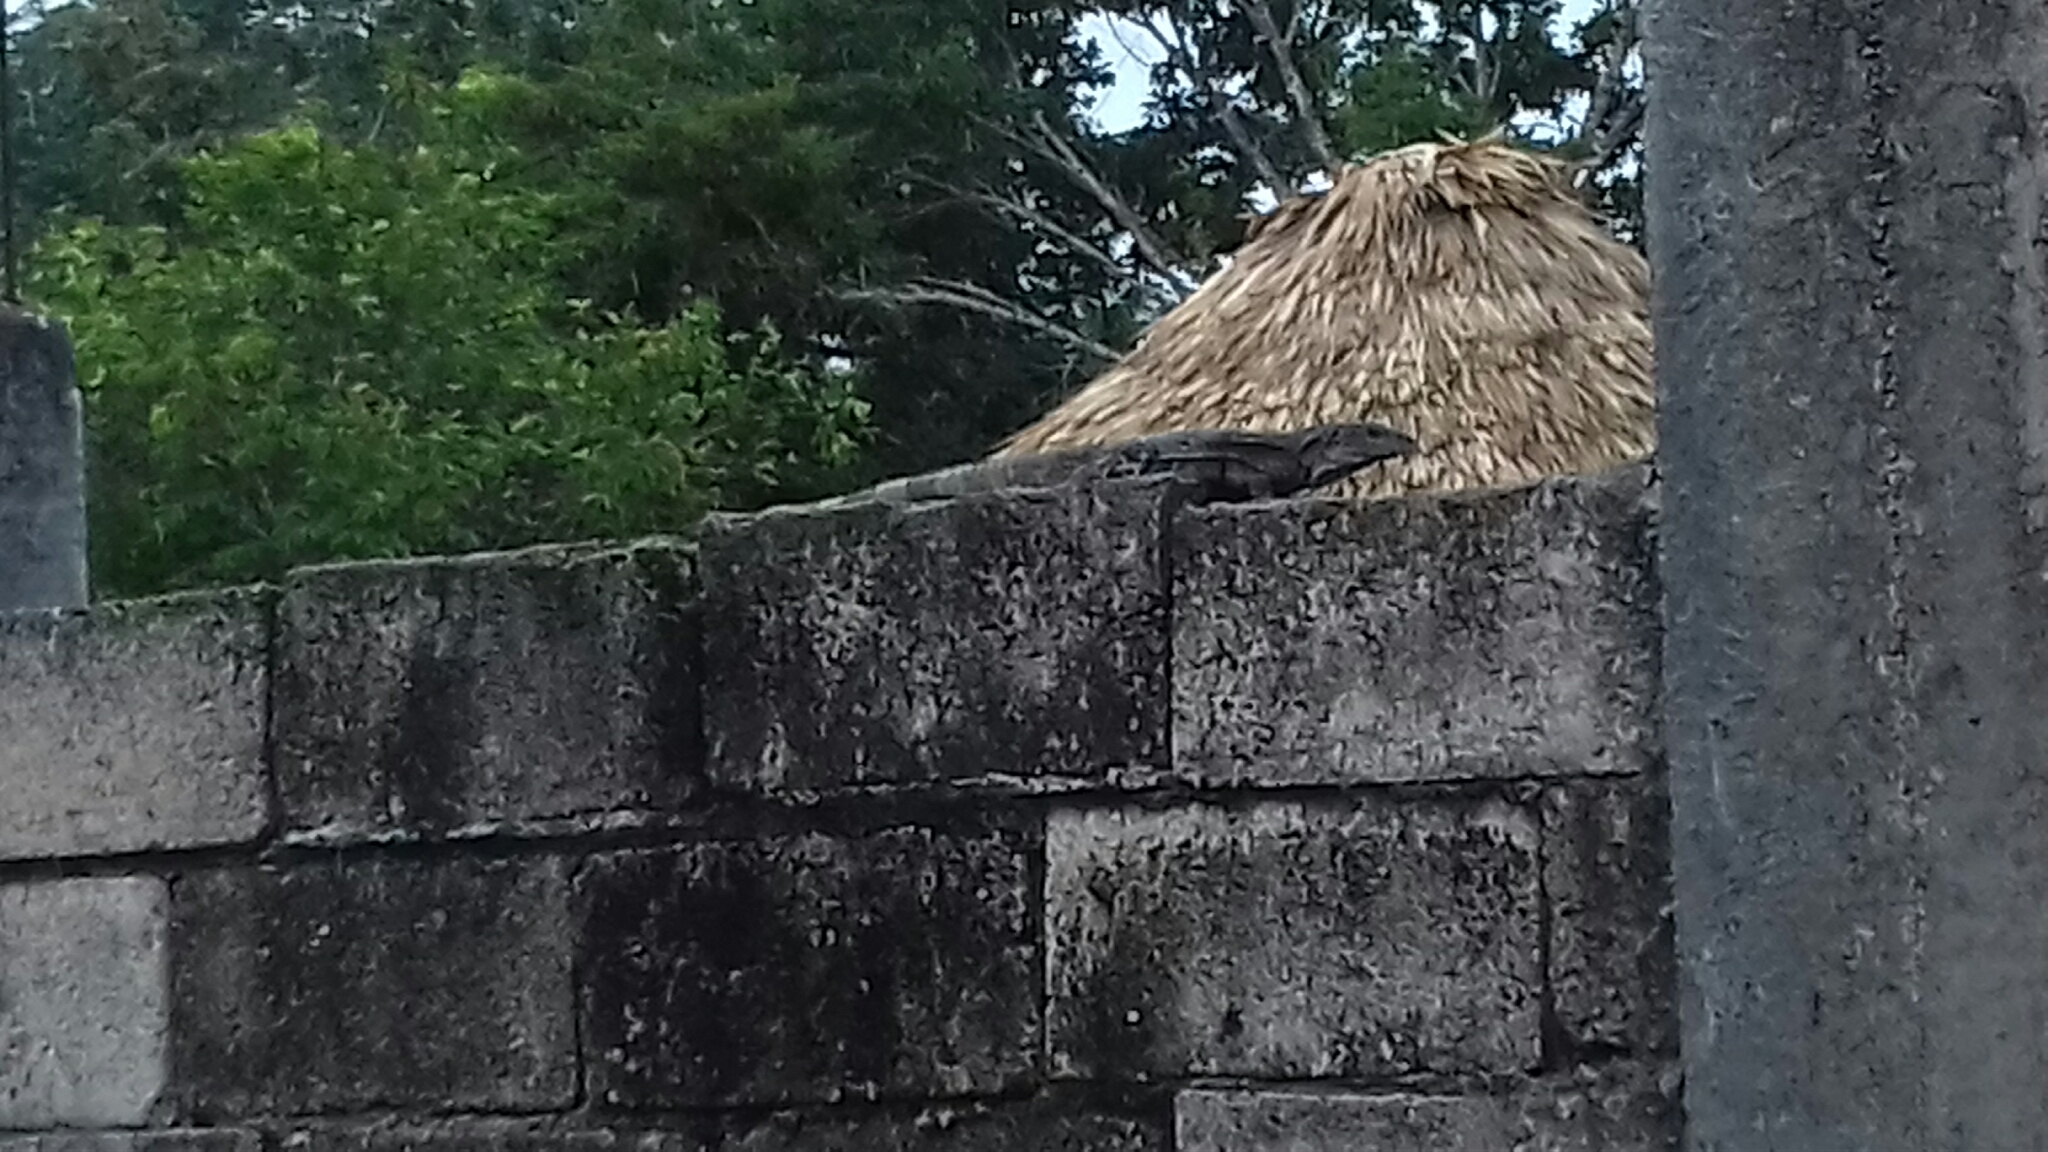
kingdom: Animalia
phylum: Chordata
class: Squamata
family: Iguanidae
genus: Ctenosaura
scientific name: Ctenosaura similis
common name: Black spiny-tailed iguana
